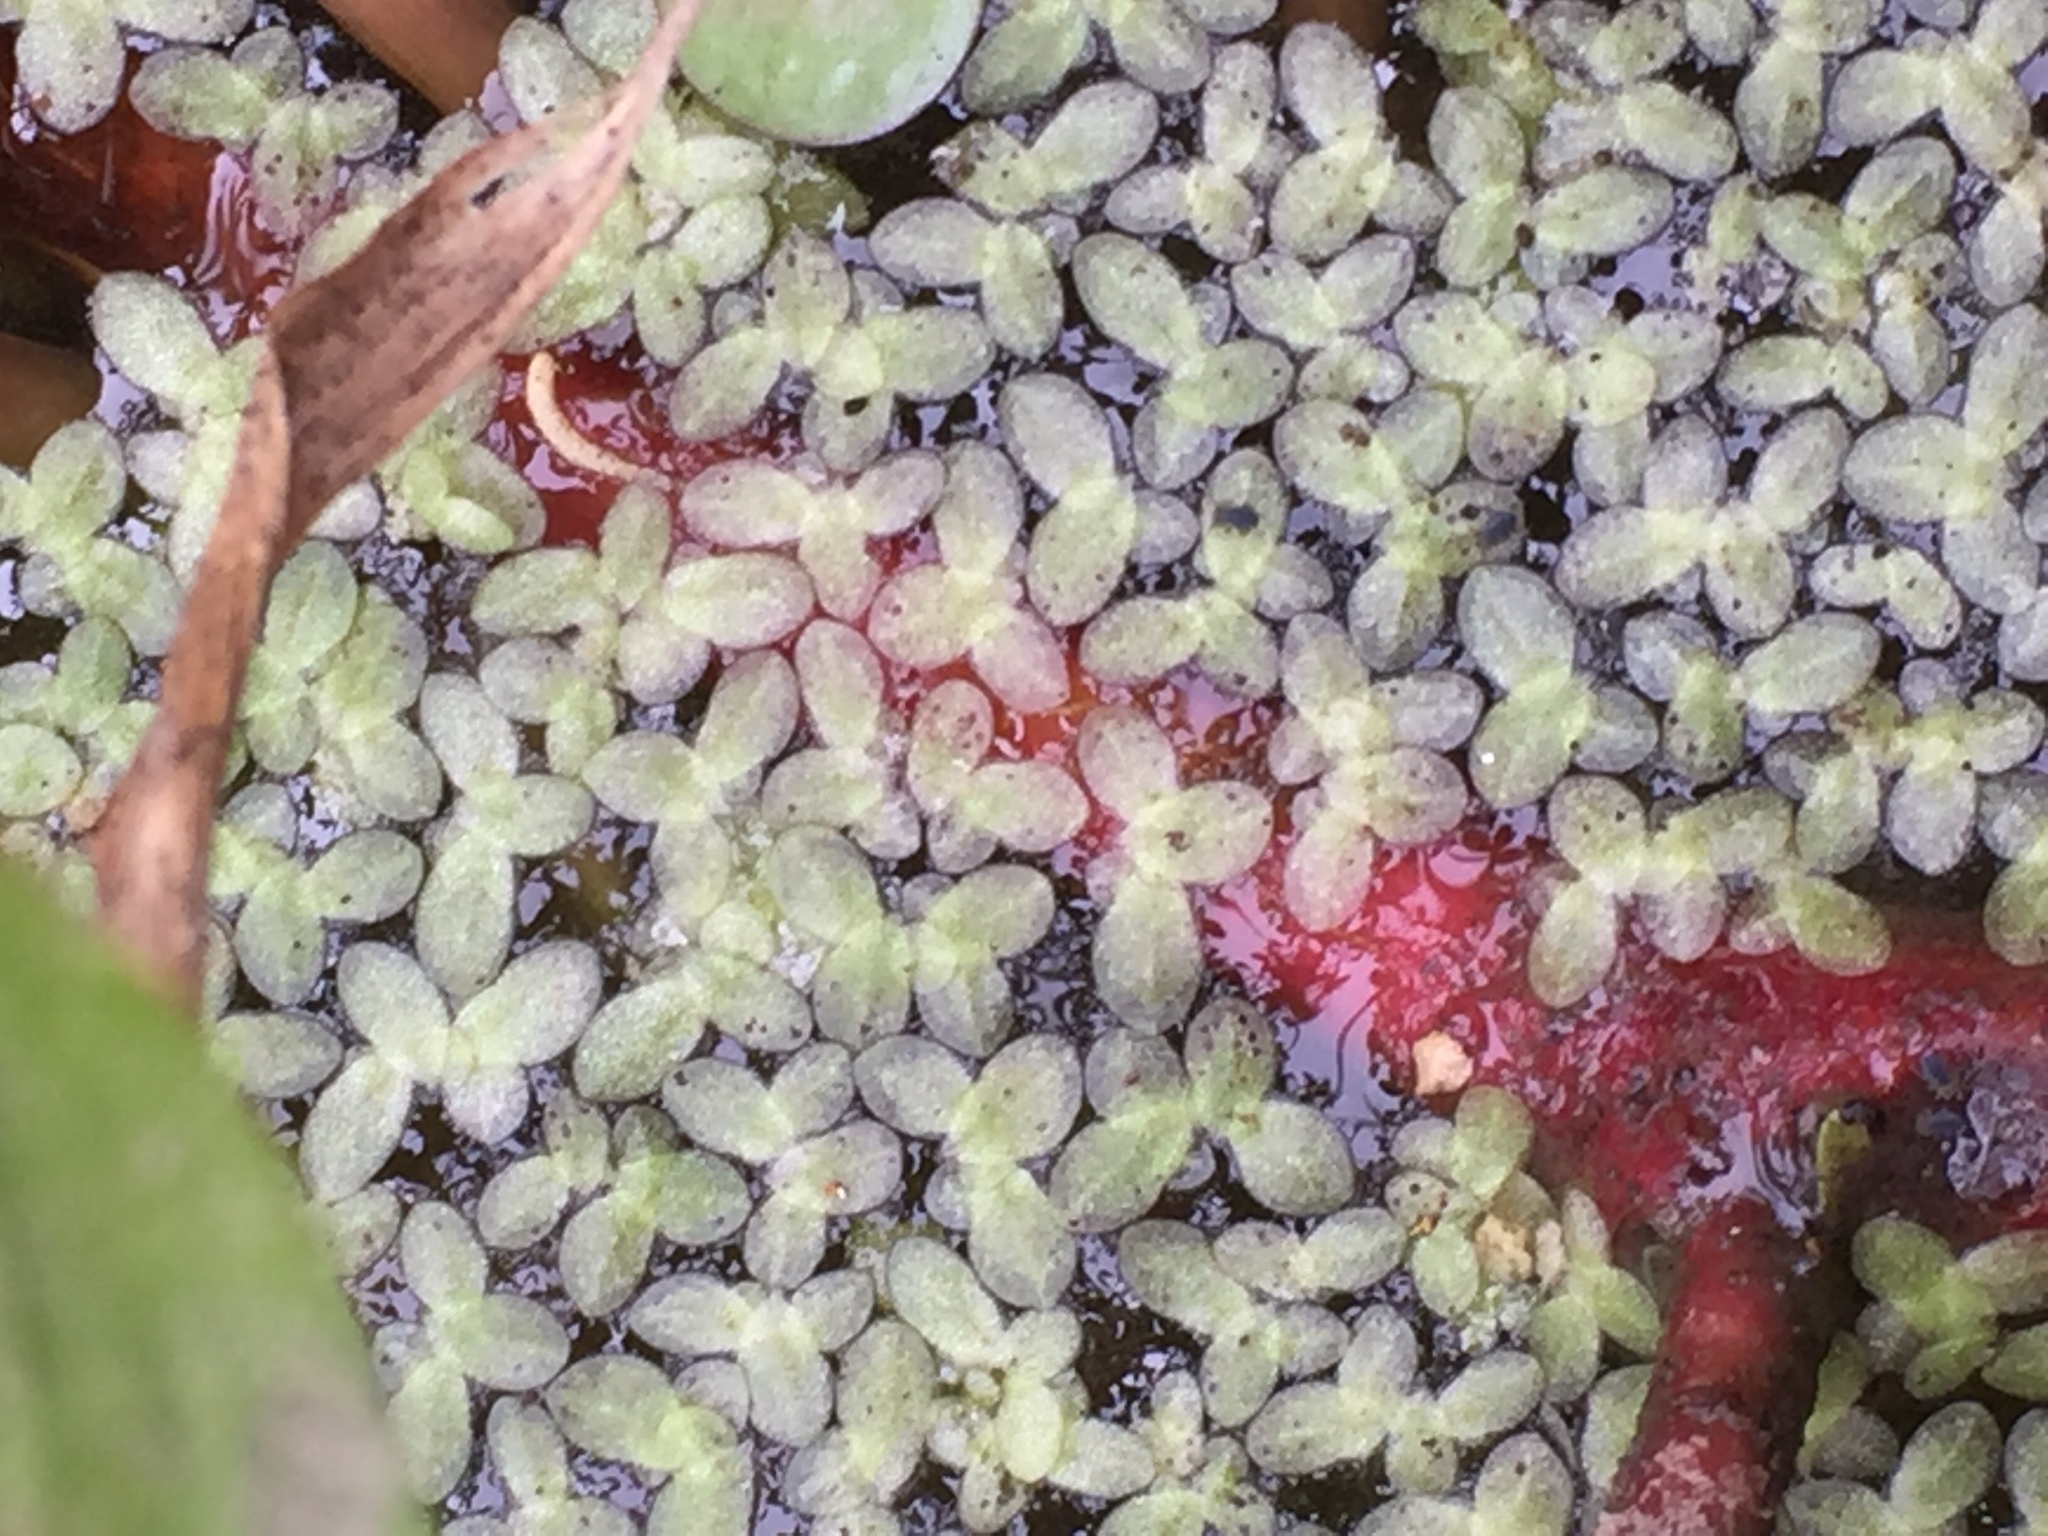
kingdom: Plantae
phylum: Tracheophyta
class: Liliopsida
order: Alismatales
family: Araceae
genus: Lemna
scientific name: Lemna minuta
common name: Least duckweed
